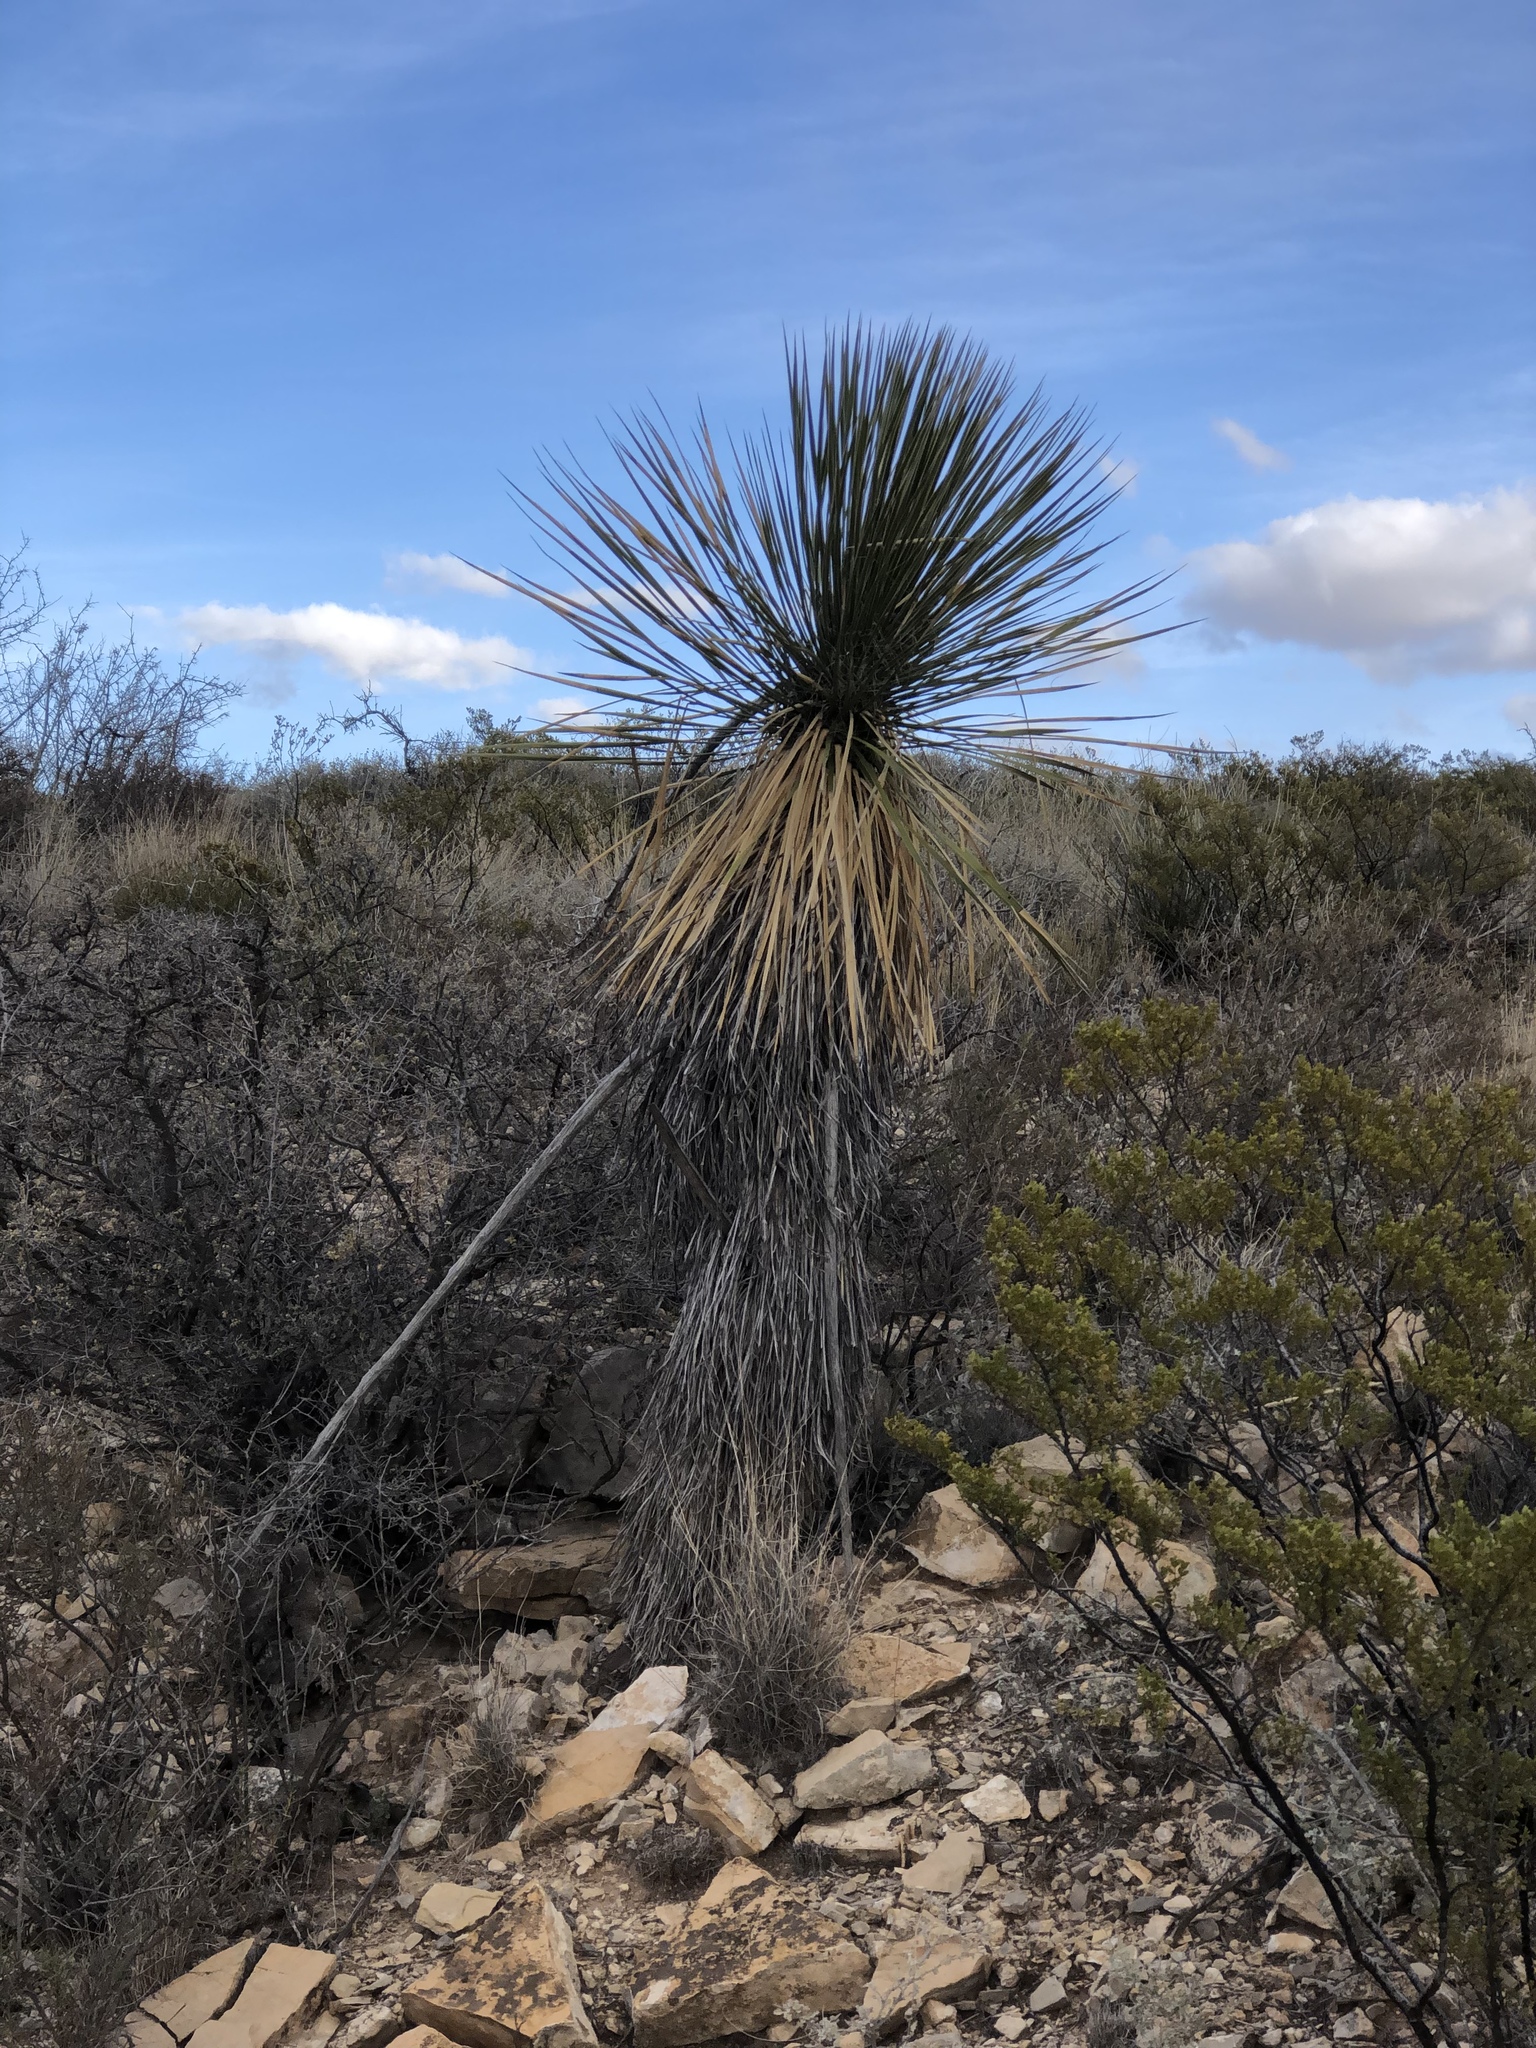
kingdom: Plantae
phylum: Tracheophyta
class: Liliopsida
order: Asparagales
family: Asparagaceae
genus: Yucca
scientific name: Yucca elata
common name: Palmella
